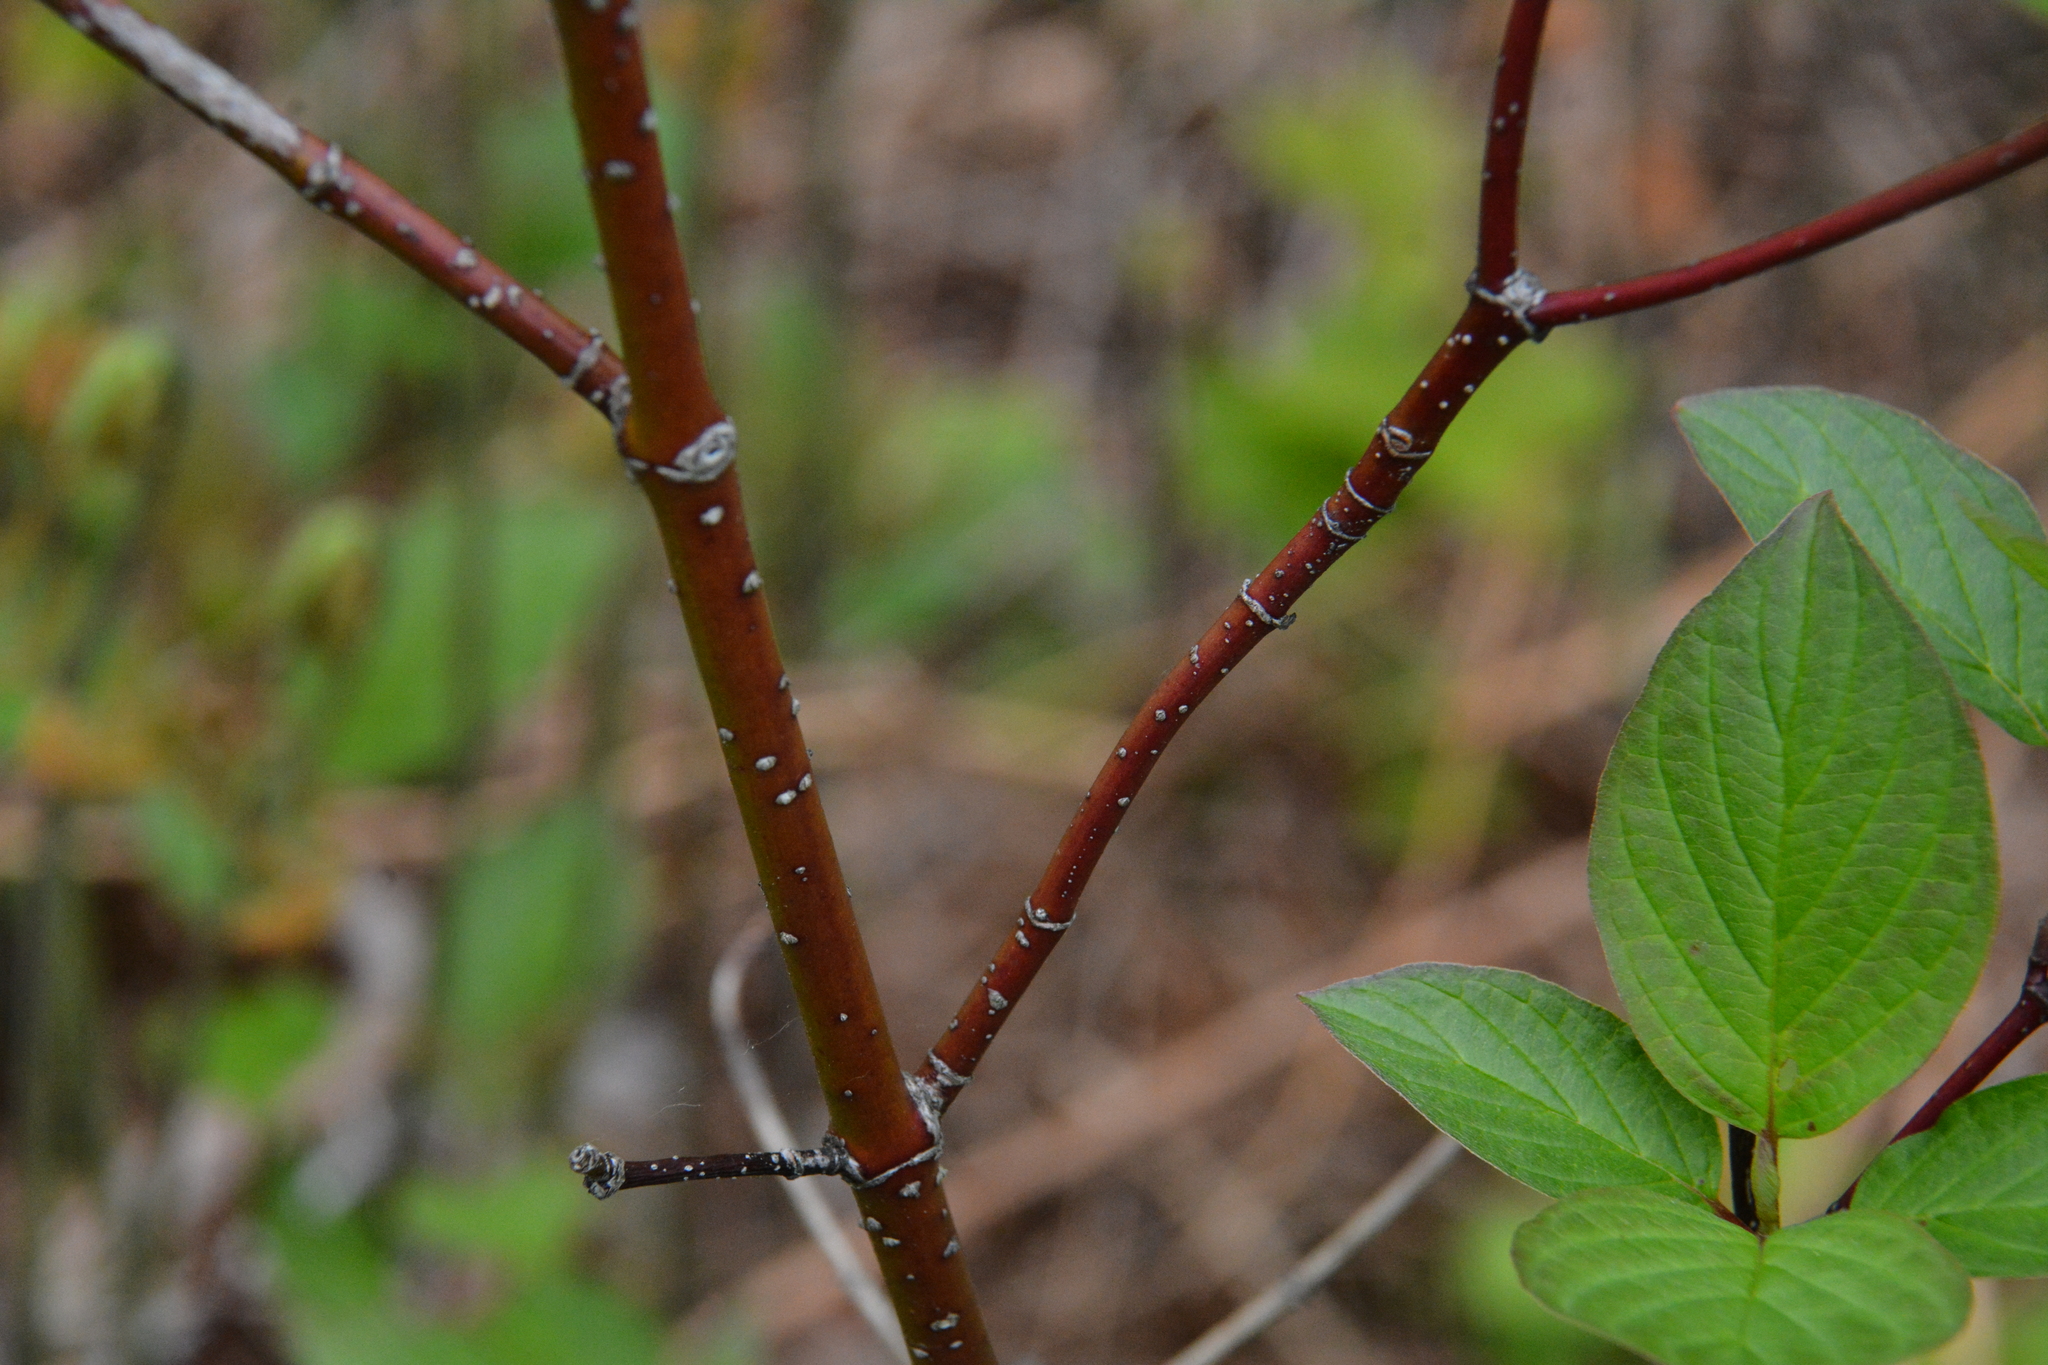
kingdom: Plantae
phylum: Tracheophyta
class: Magnoliopsida
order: Cornales
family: Cornaceae
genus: Cornus
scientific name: Cornus sericea
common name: Red-osier dogwood
